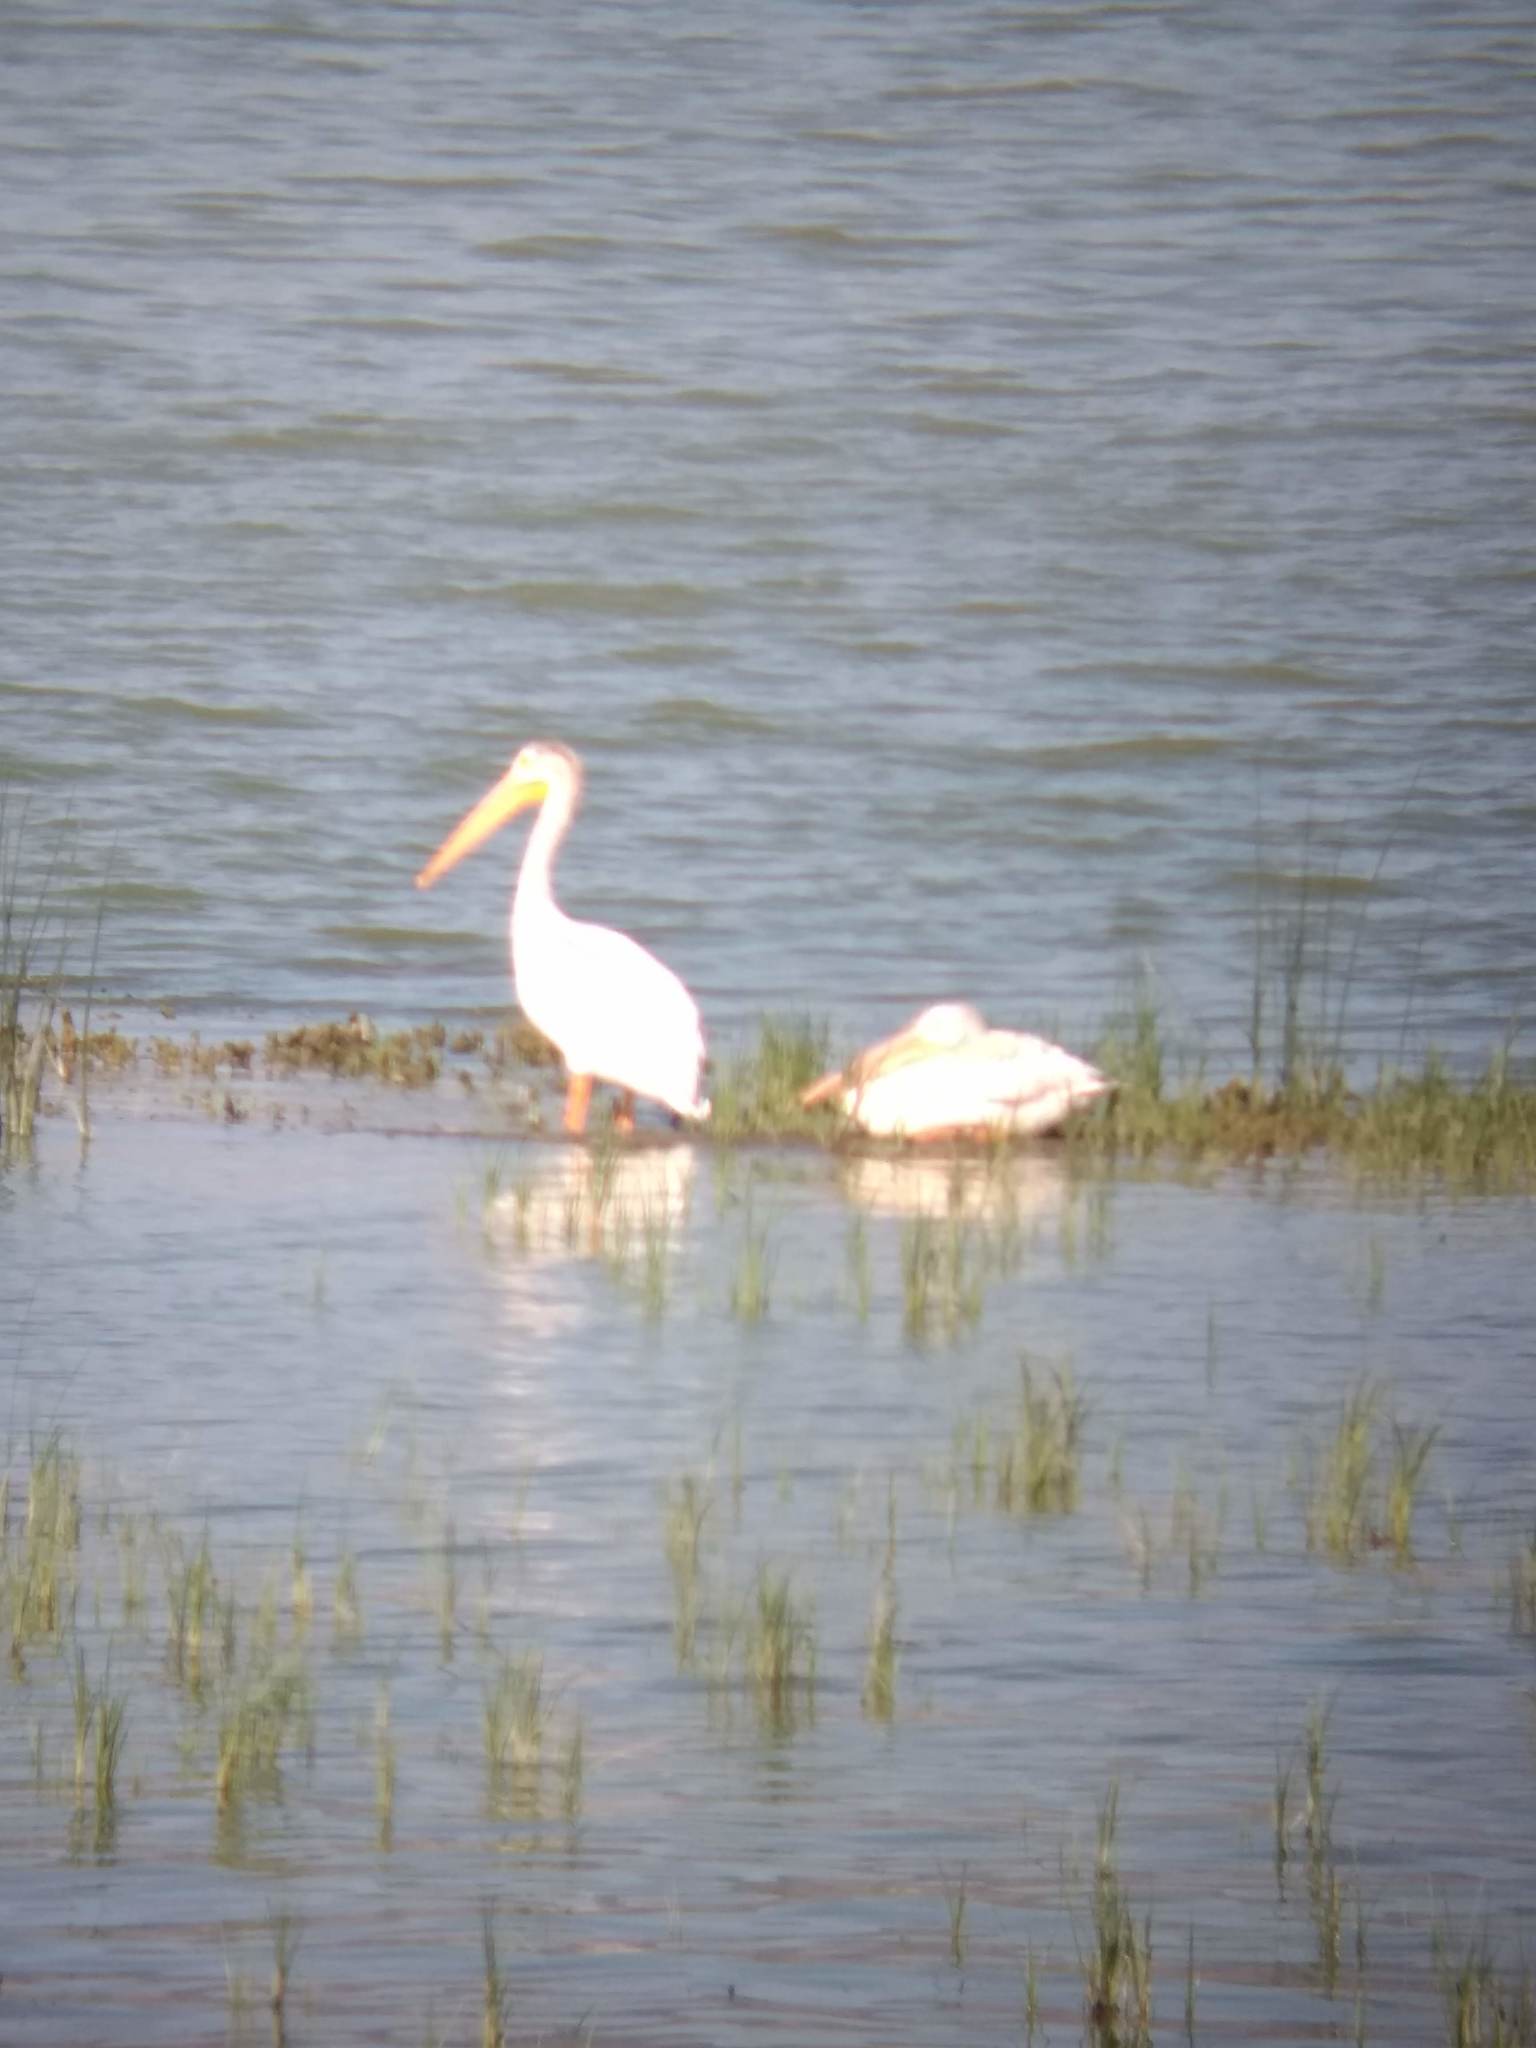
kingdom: Animalia
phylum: Chordata
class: Aves
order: Pelecaniformes
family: Pelecanidae
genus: Pelecanus
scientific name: Pelecanus erythrorhynchos
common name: American white pelican
